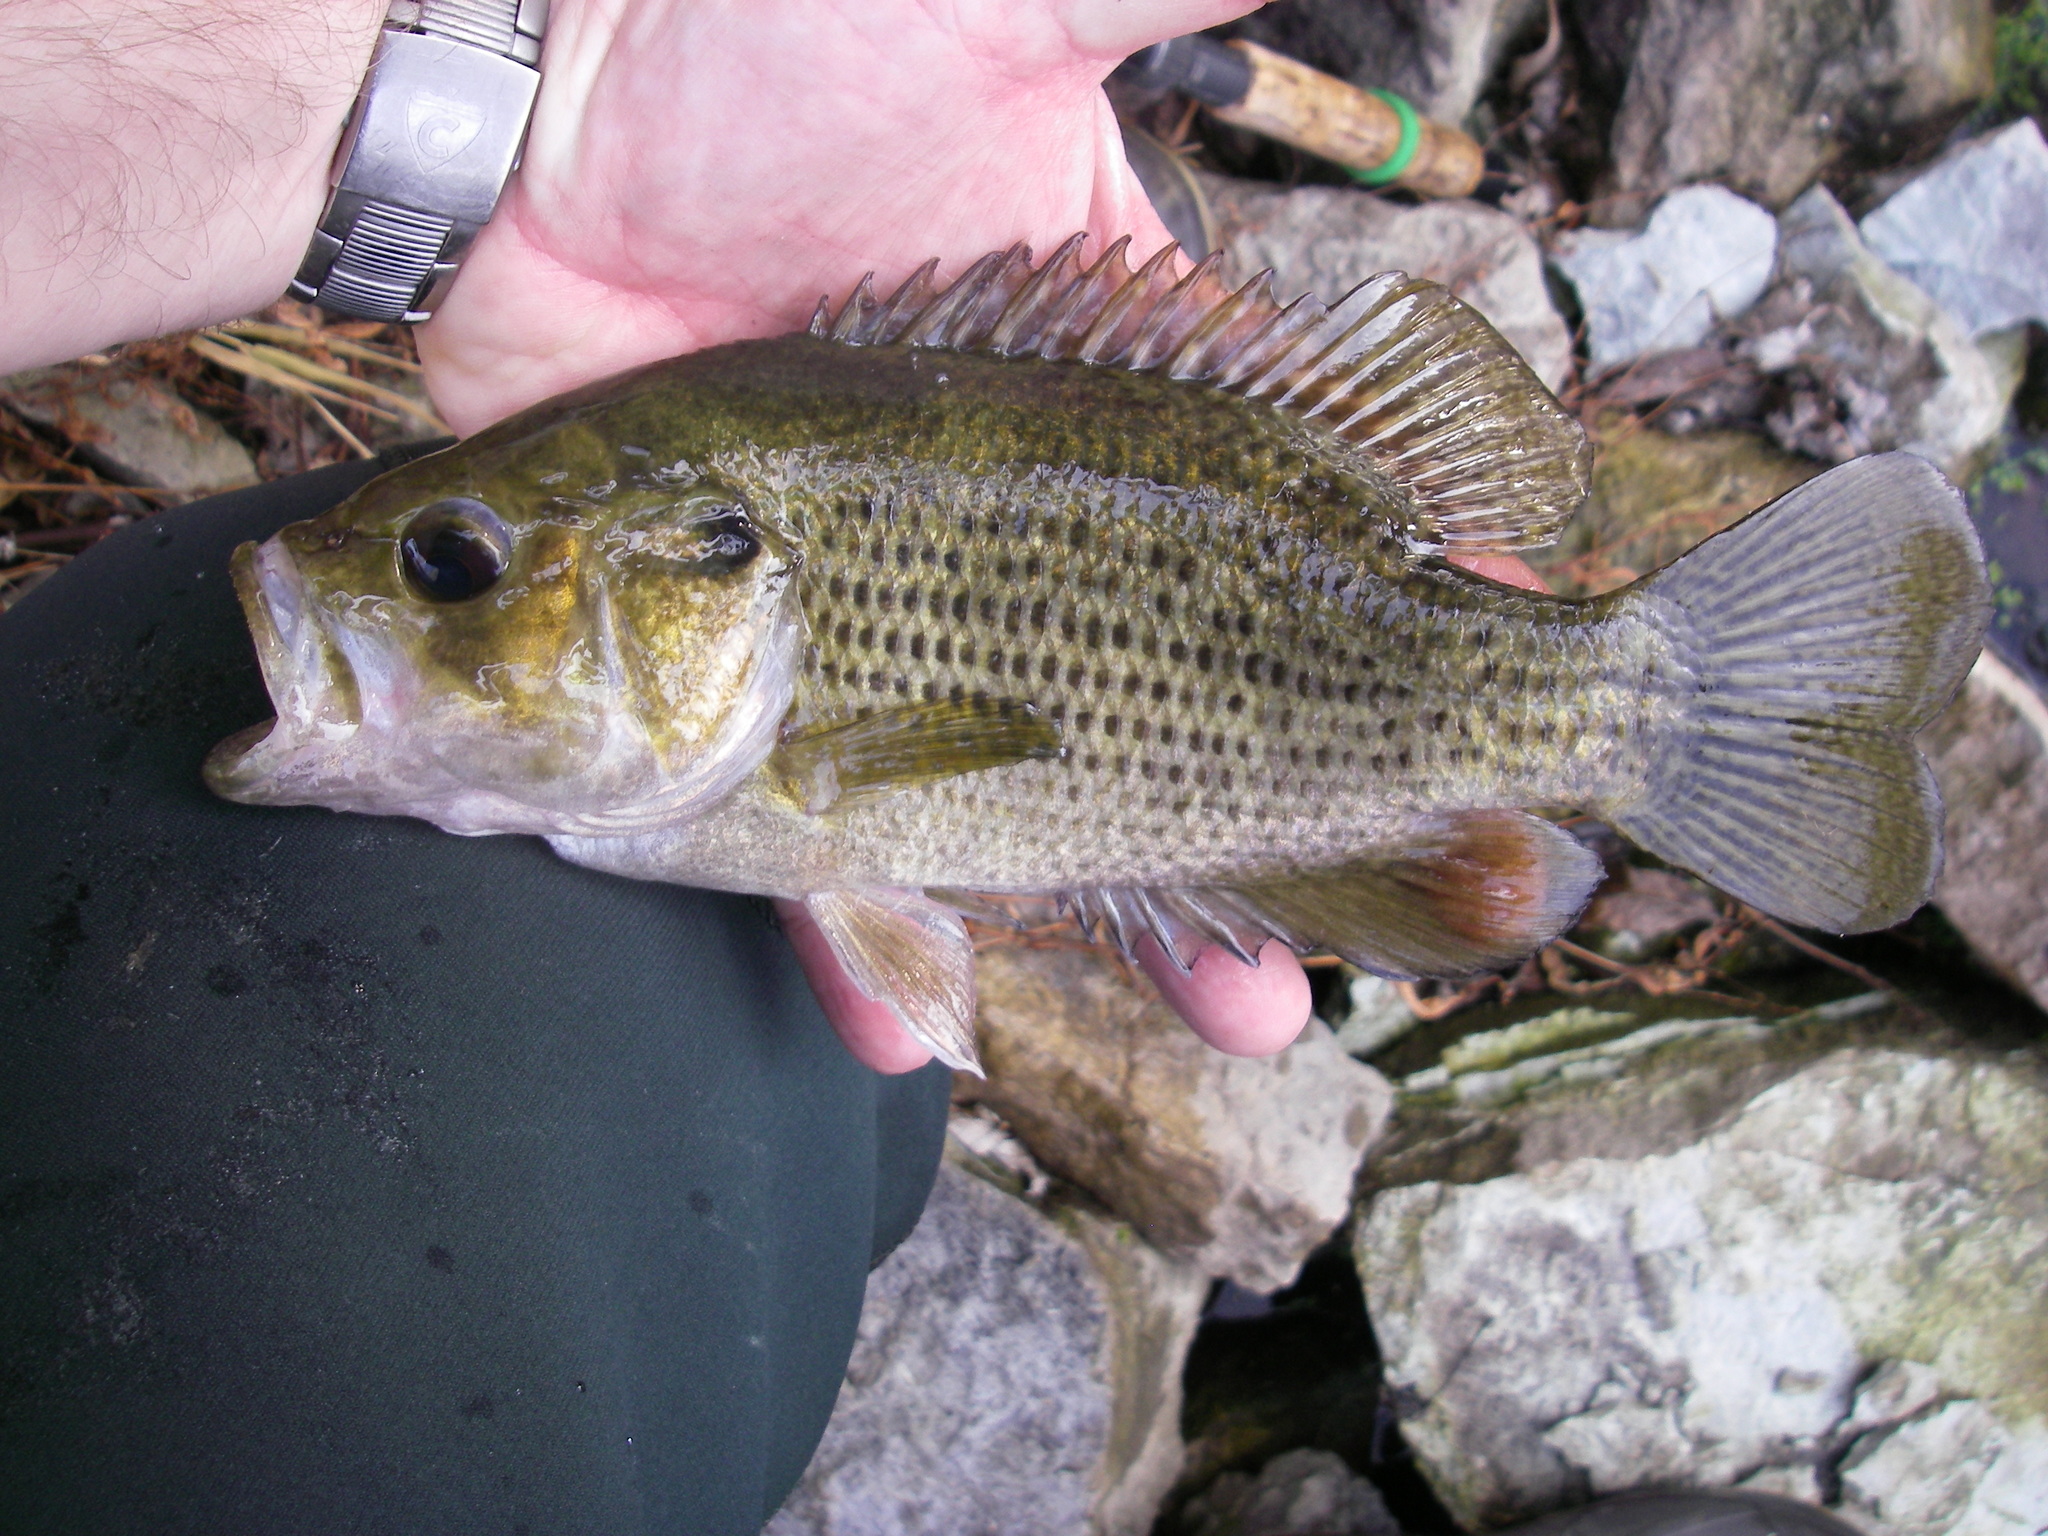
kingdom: Animalia
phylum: Chordata
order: Perciformes
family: Centrarchidae
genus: Ambloplites
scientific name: Ambloplites rupestris
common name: Rock bass
